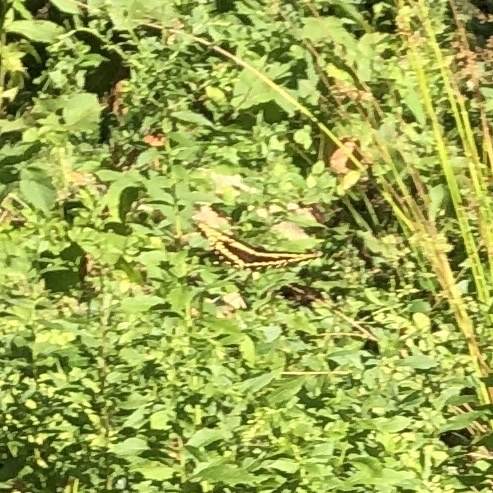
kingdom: Animalia
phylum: Arthropoda
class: Insecta
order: Lepidoptera
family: Papilionidae
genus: Papilio
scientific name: Papilio cresphontes
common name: Giant swallowtail
